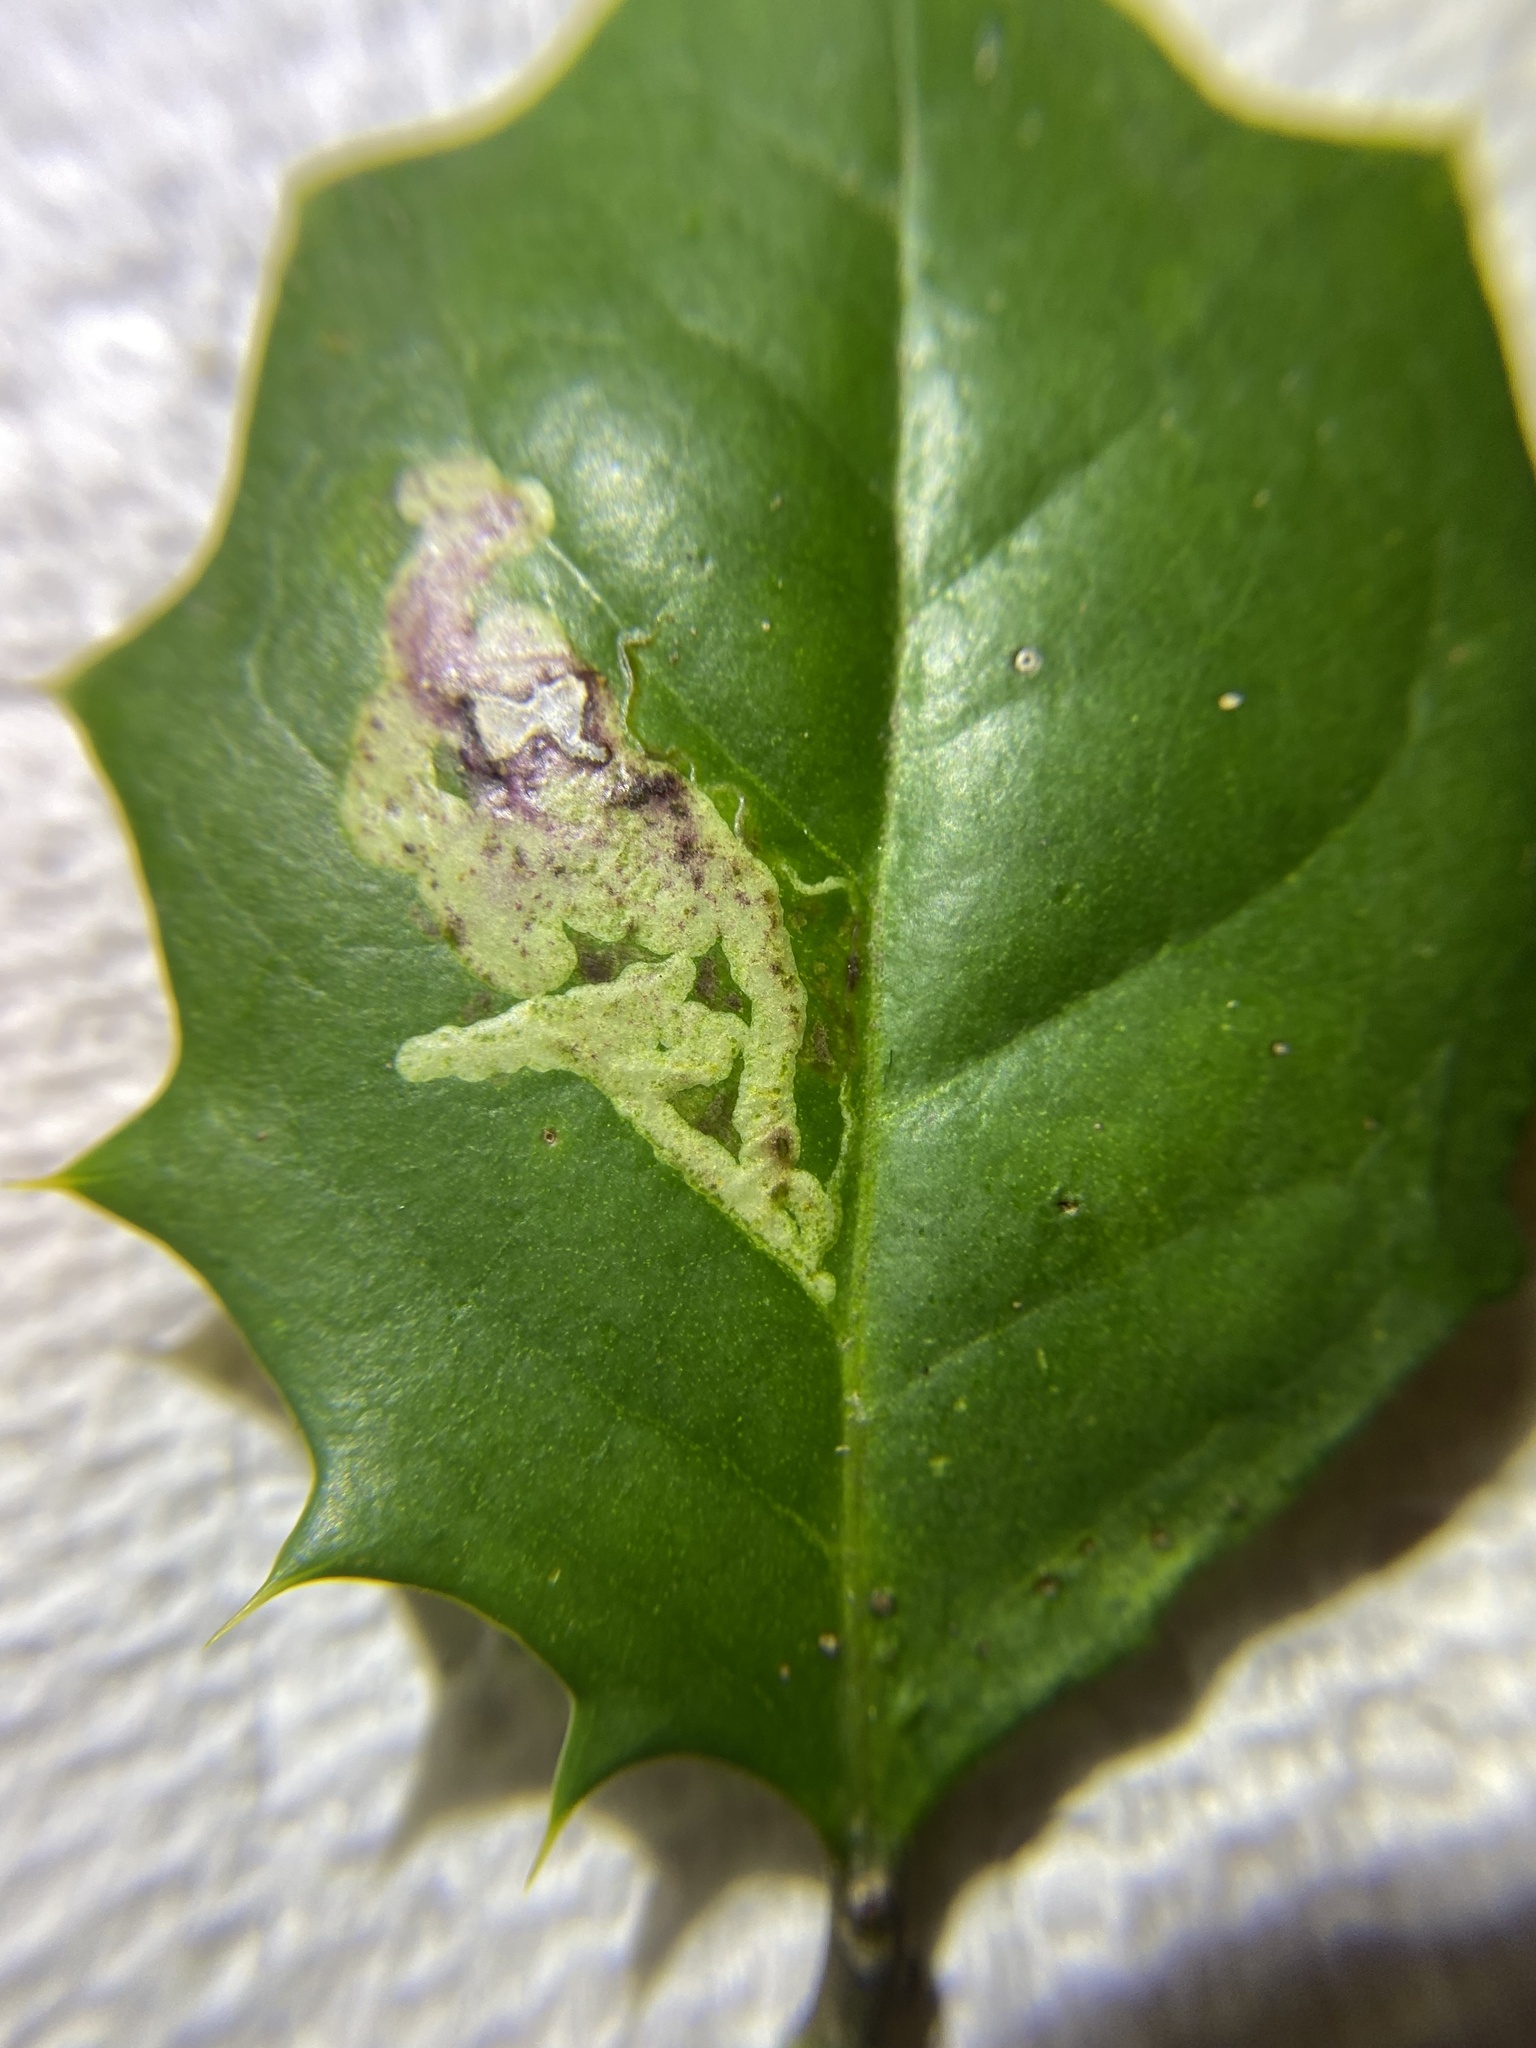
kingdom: Animalia
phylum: Arthropoda
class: Insecta
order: Diptera
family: Agromyzidae
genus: Phytomyza
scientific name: Phytomyza ilicicola
